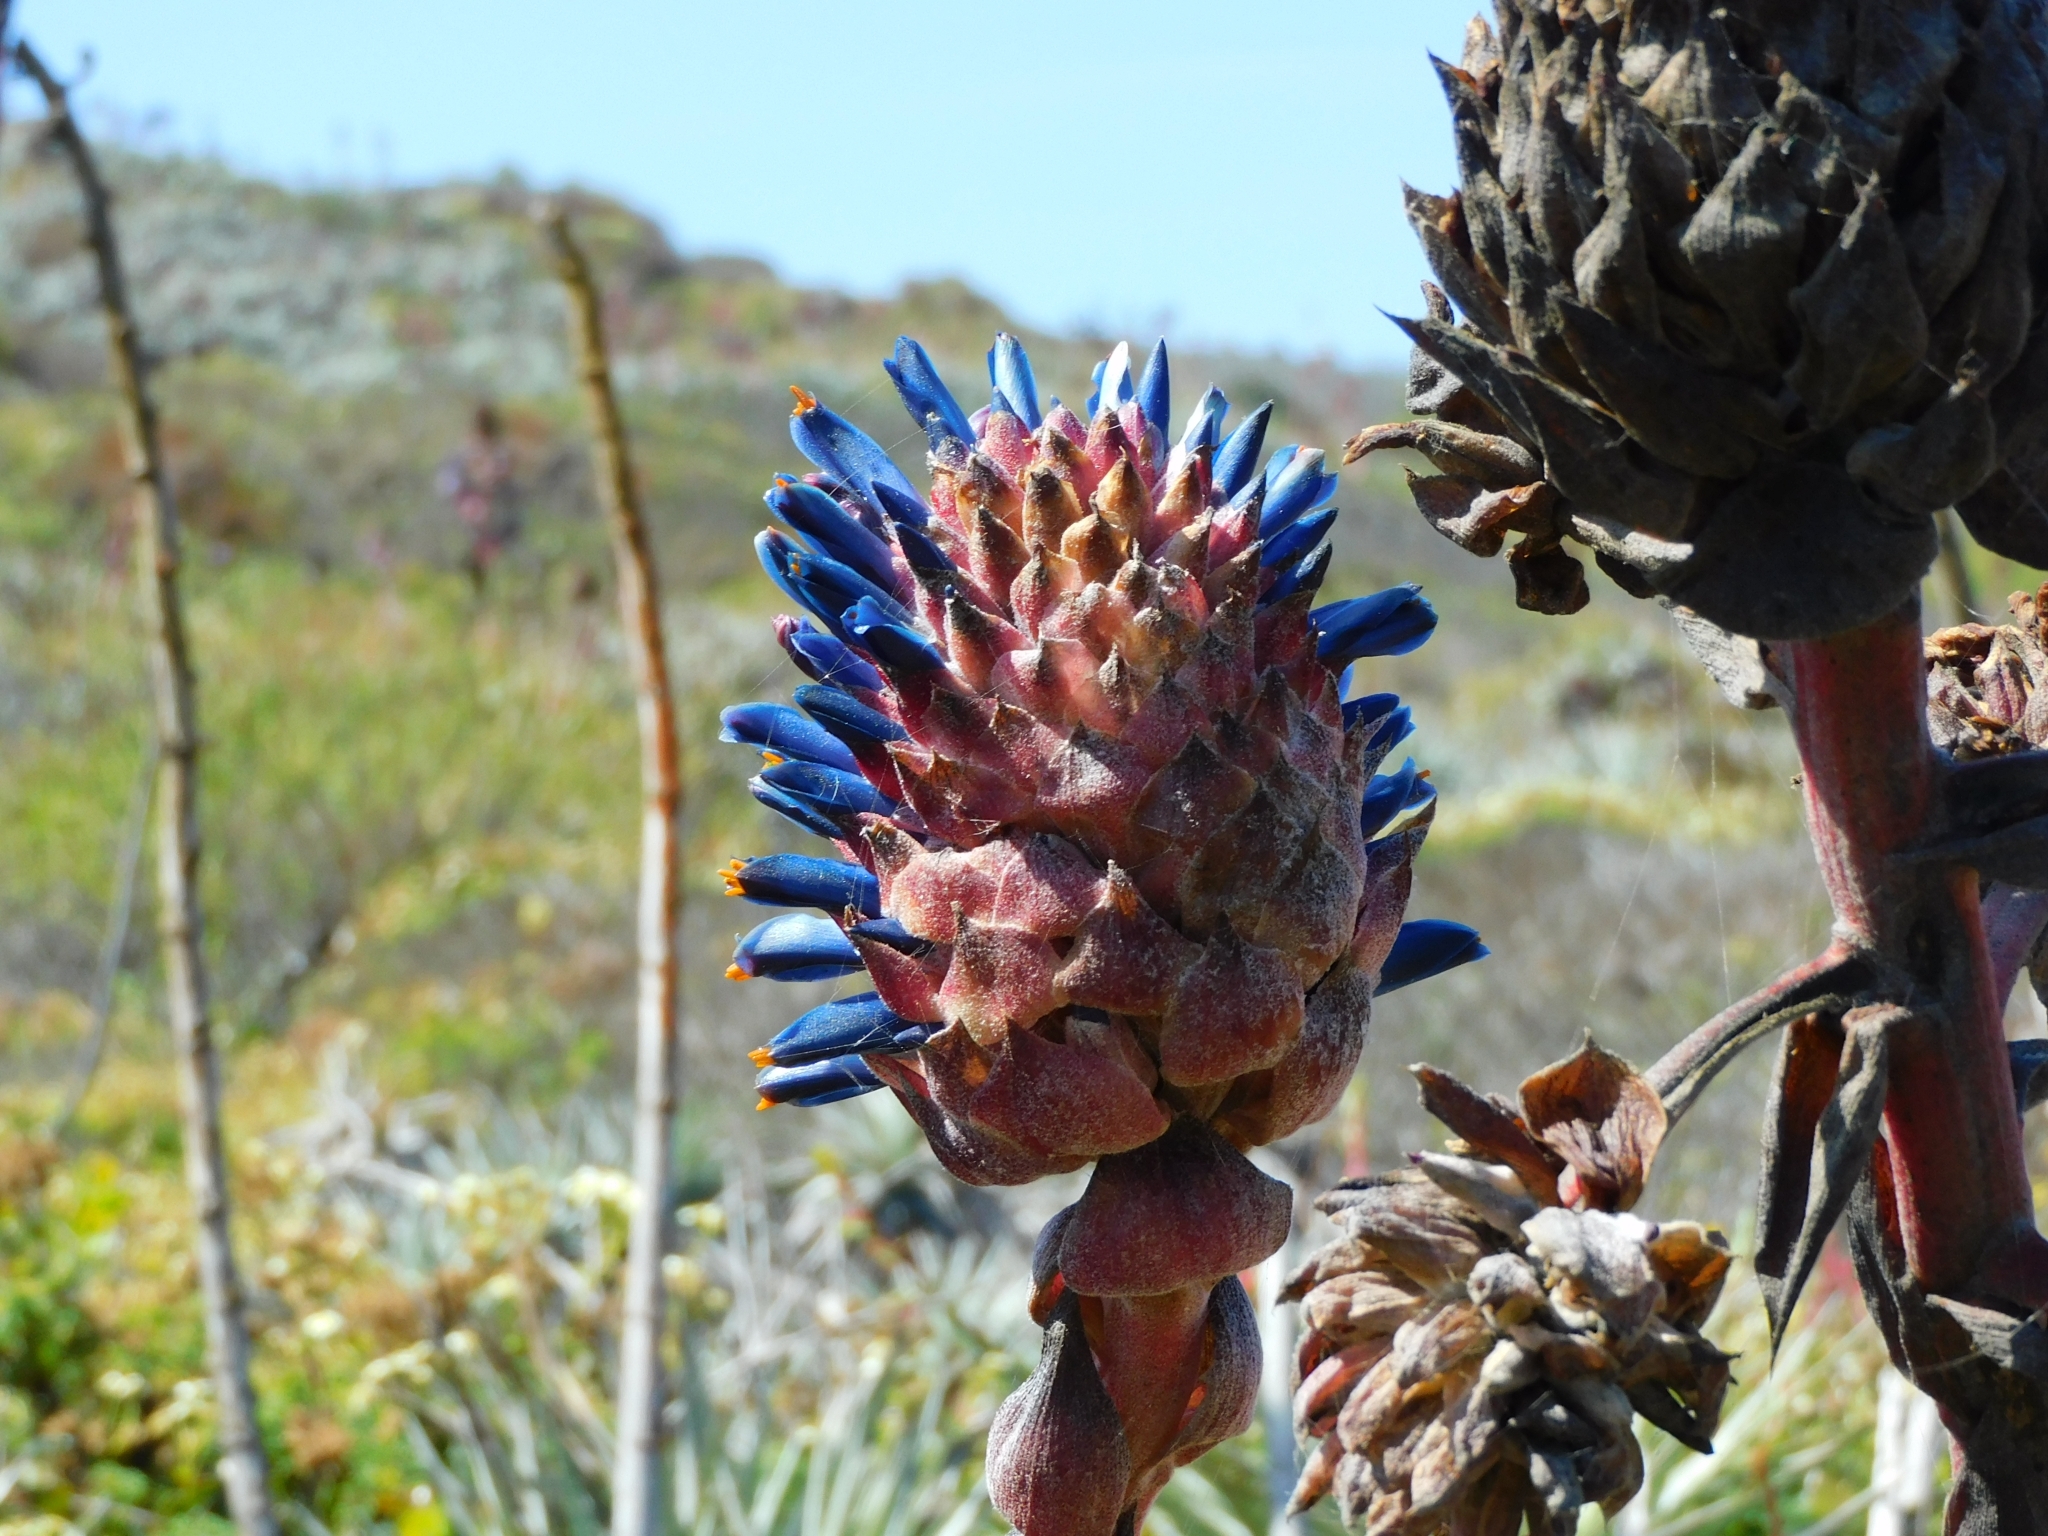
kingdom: Plantae
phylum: Tracheophyta
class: Liliopsida
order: Poales
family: Bromeliaceae
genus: Puya
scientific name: Puya venusta
